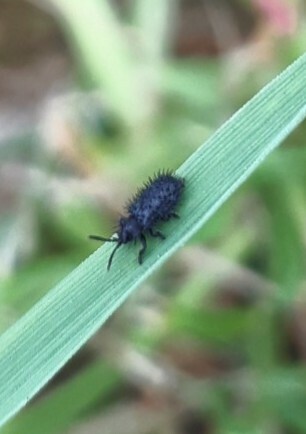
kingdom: Animalia
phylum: Arthropoda
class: Insecta
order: Coleoptera
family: Chrysomelidae
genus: Hispa
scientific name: Hispa atra
